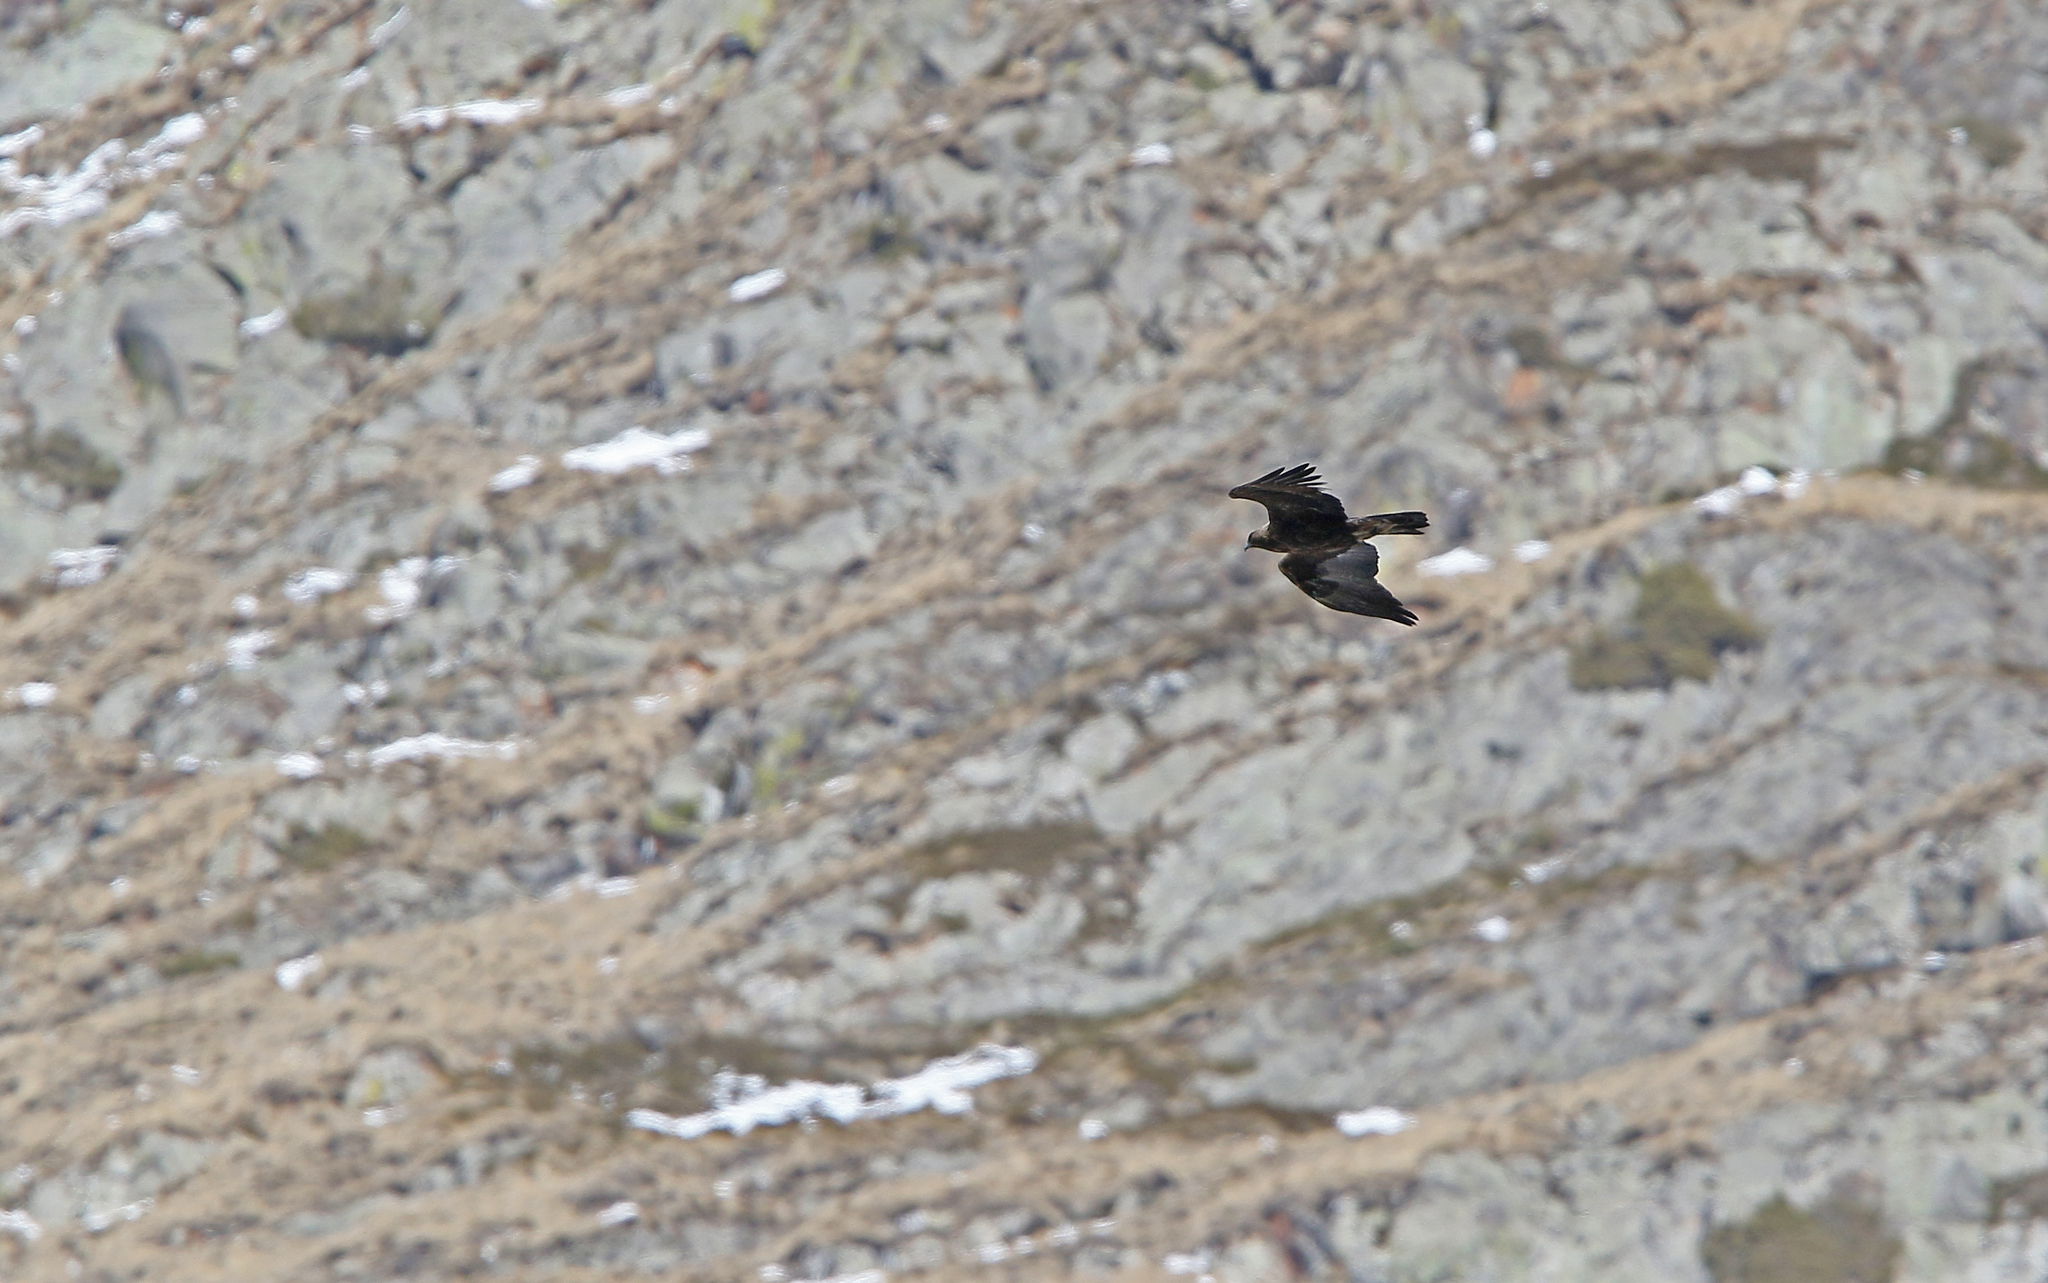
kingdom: Animalia
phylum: Chordata
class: Aves
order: Accipitriformes
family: Accipitridae
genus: Aquila
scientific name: Aquila chrysaetos
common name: Golden eagle
